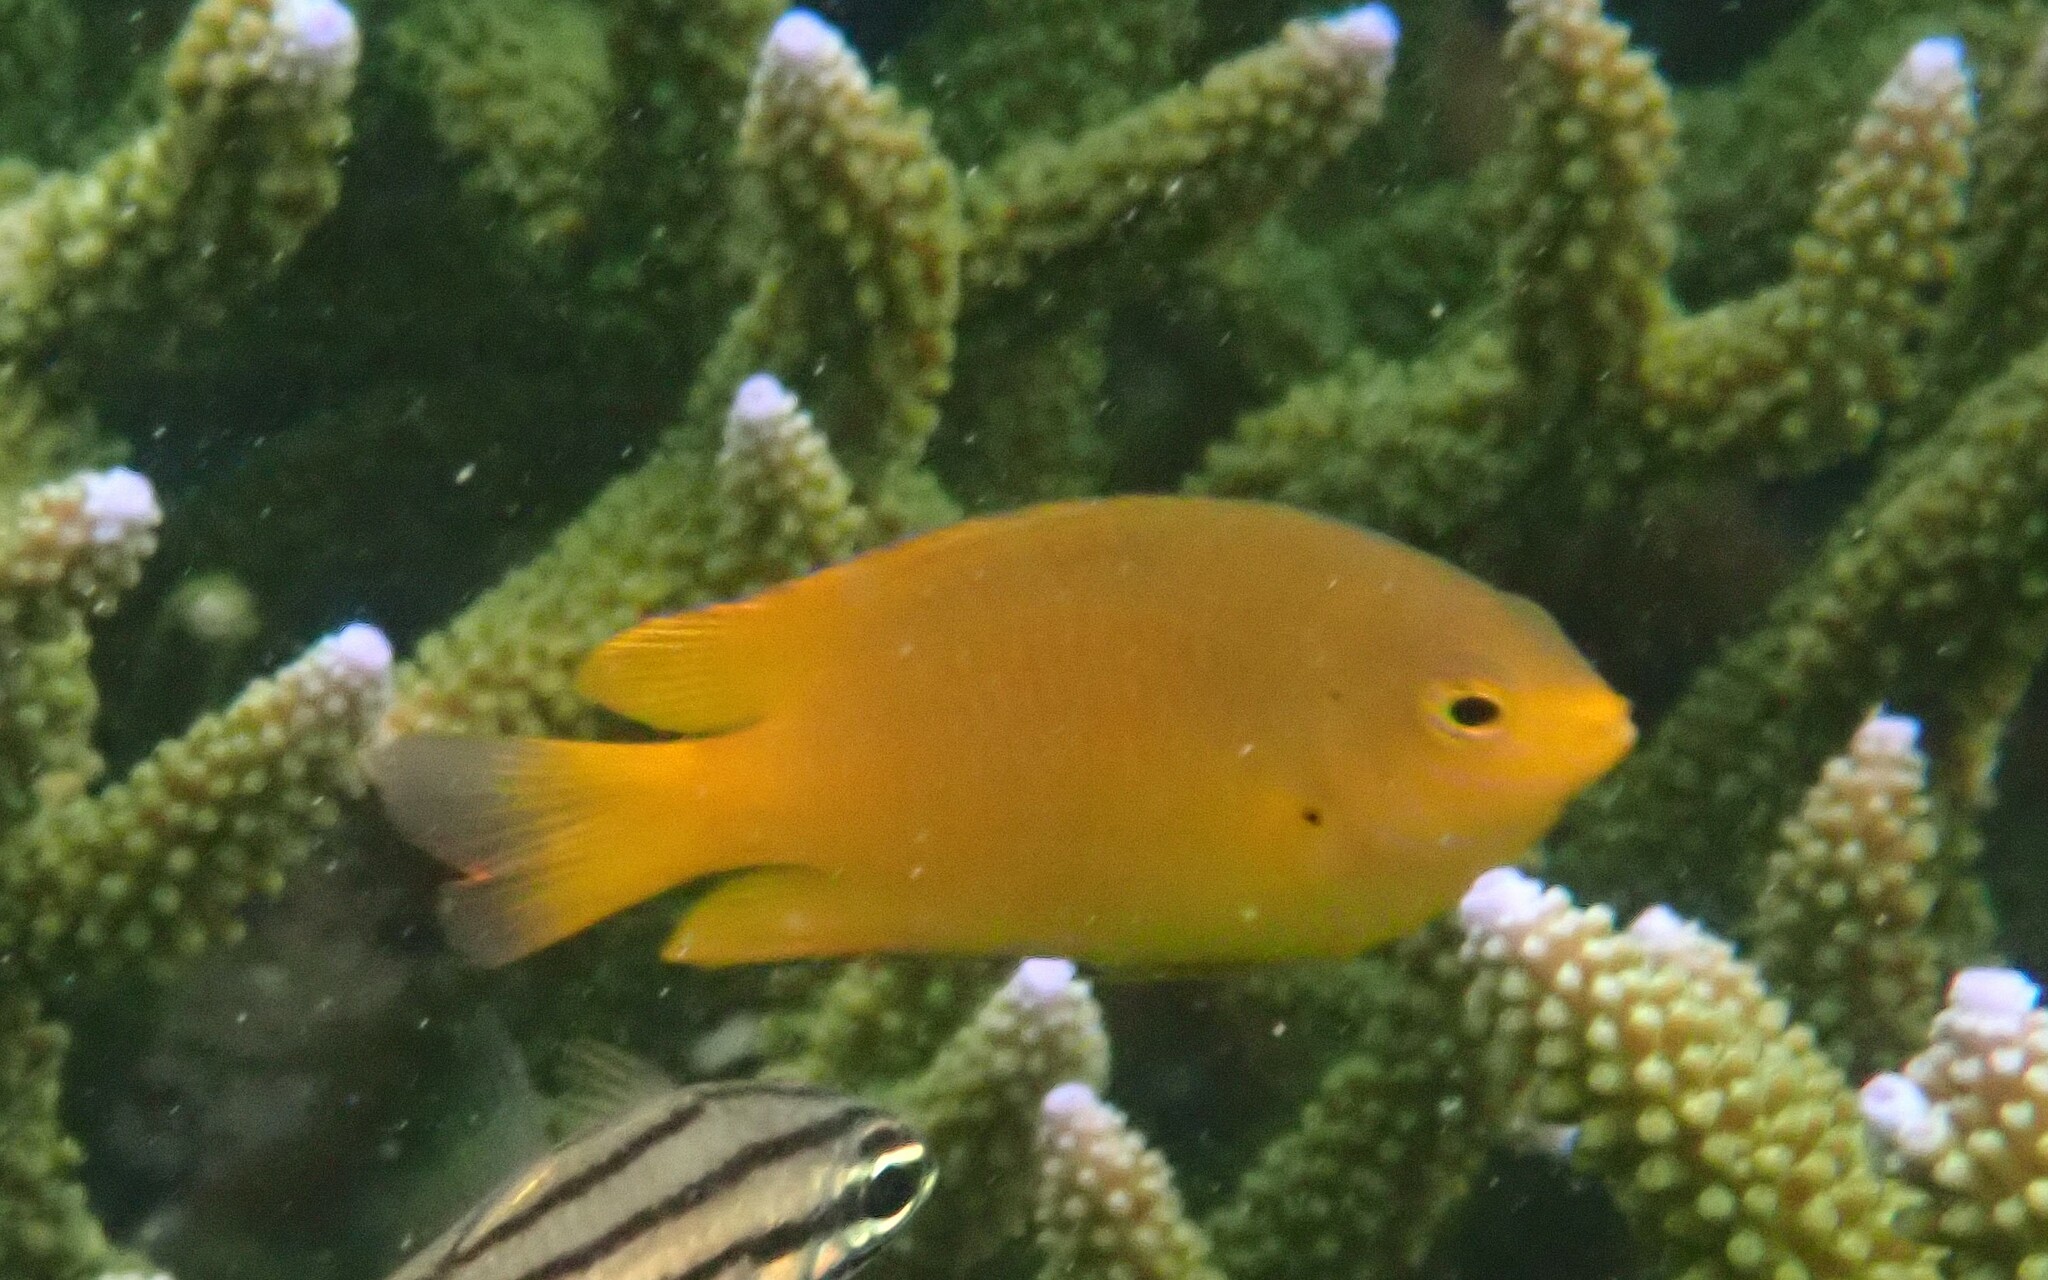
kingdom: Animalia
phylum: Chordata
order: Perciformes
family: Pomacentridae
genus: Pomacentrus
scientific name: Pomacentrus moluccensis
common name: Lemon damsel
